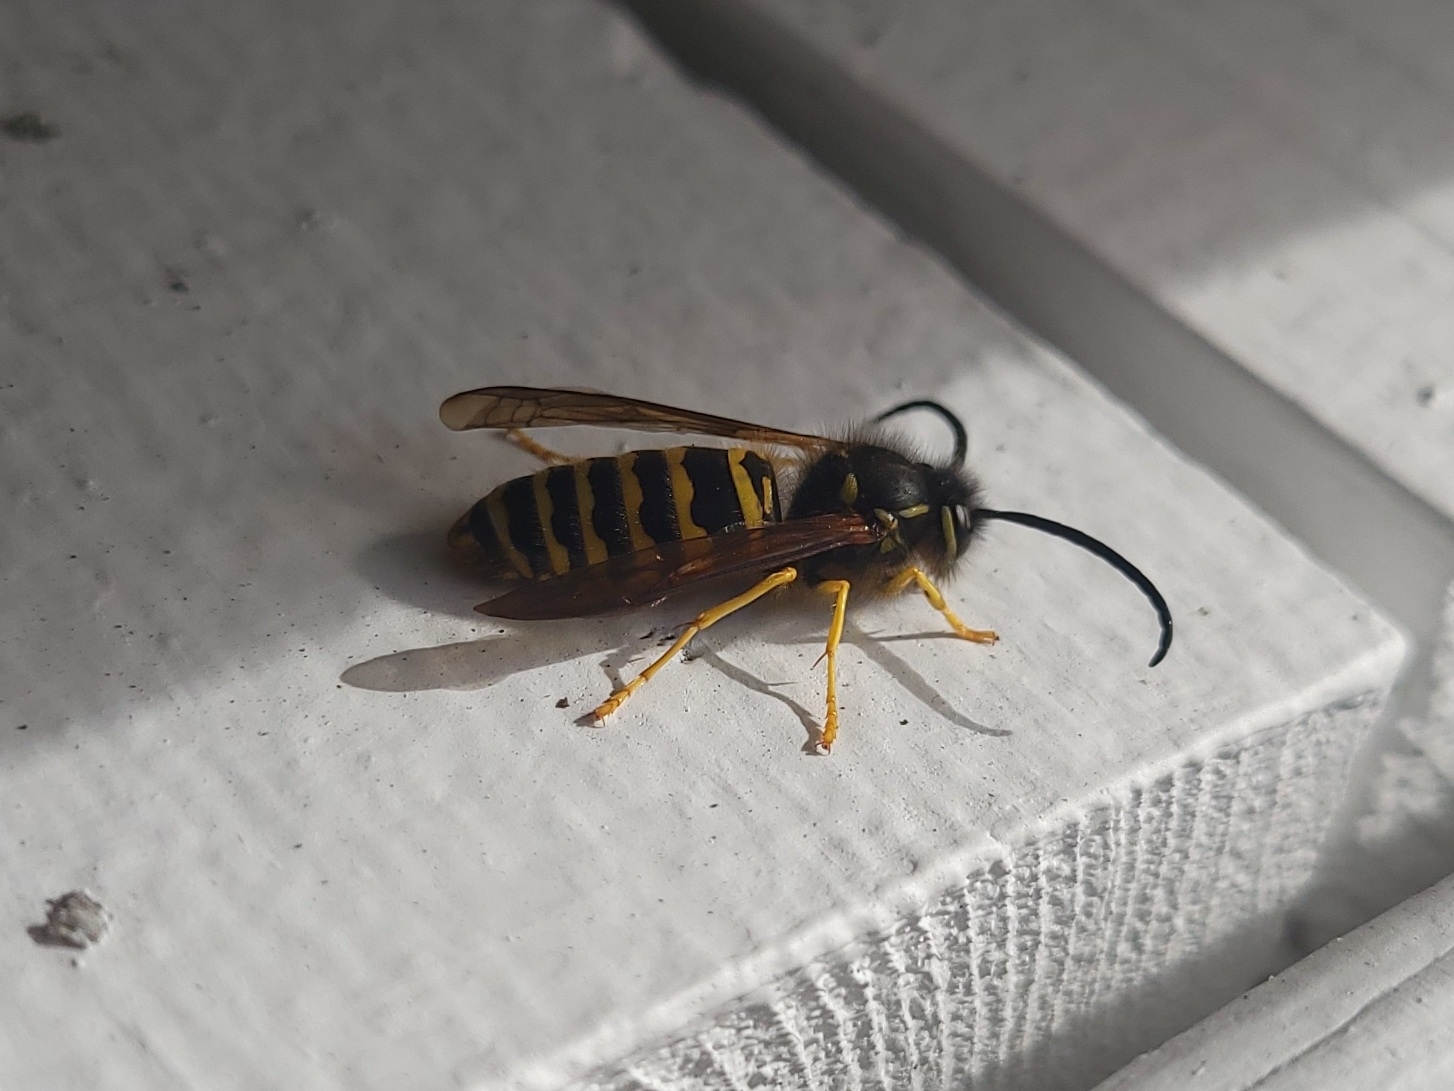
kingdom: Animalia
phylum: Arthropoda
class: Insecta
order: Hymenoptera
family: Vespidae
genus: Vespula
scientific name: Vespula maculifrons
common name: Eastern yellowjacket
